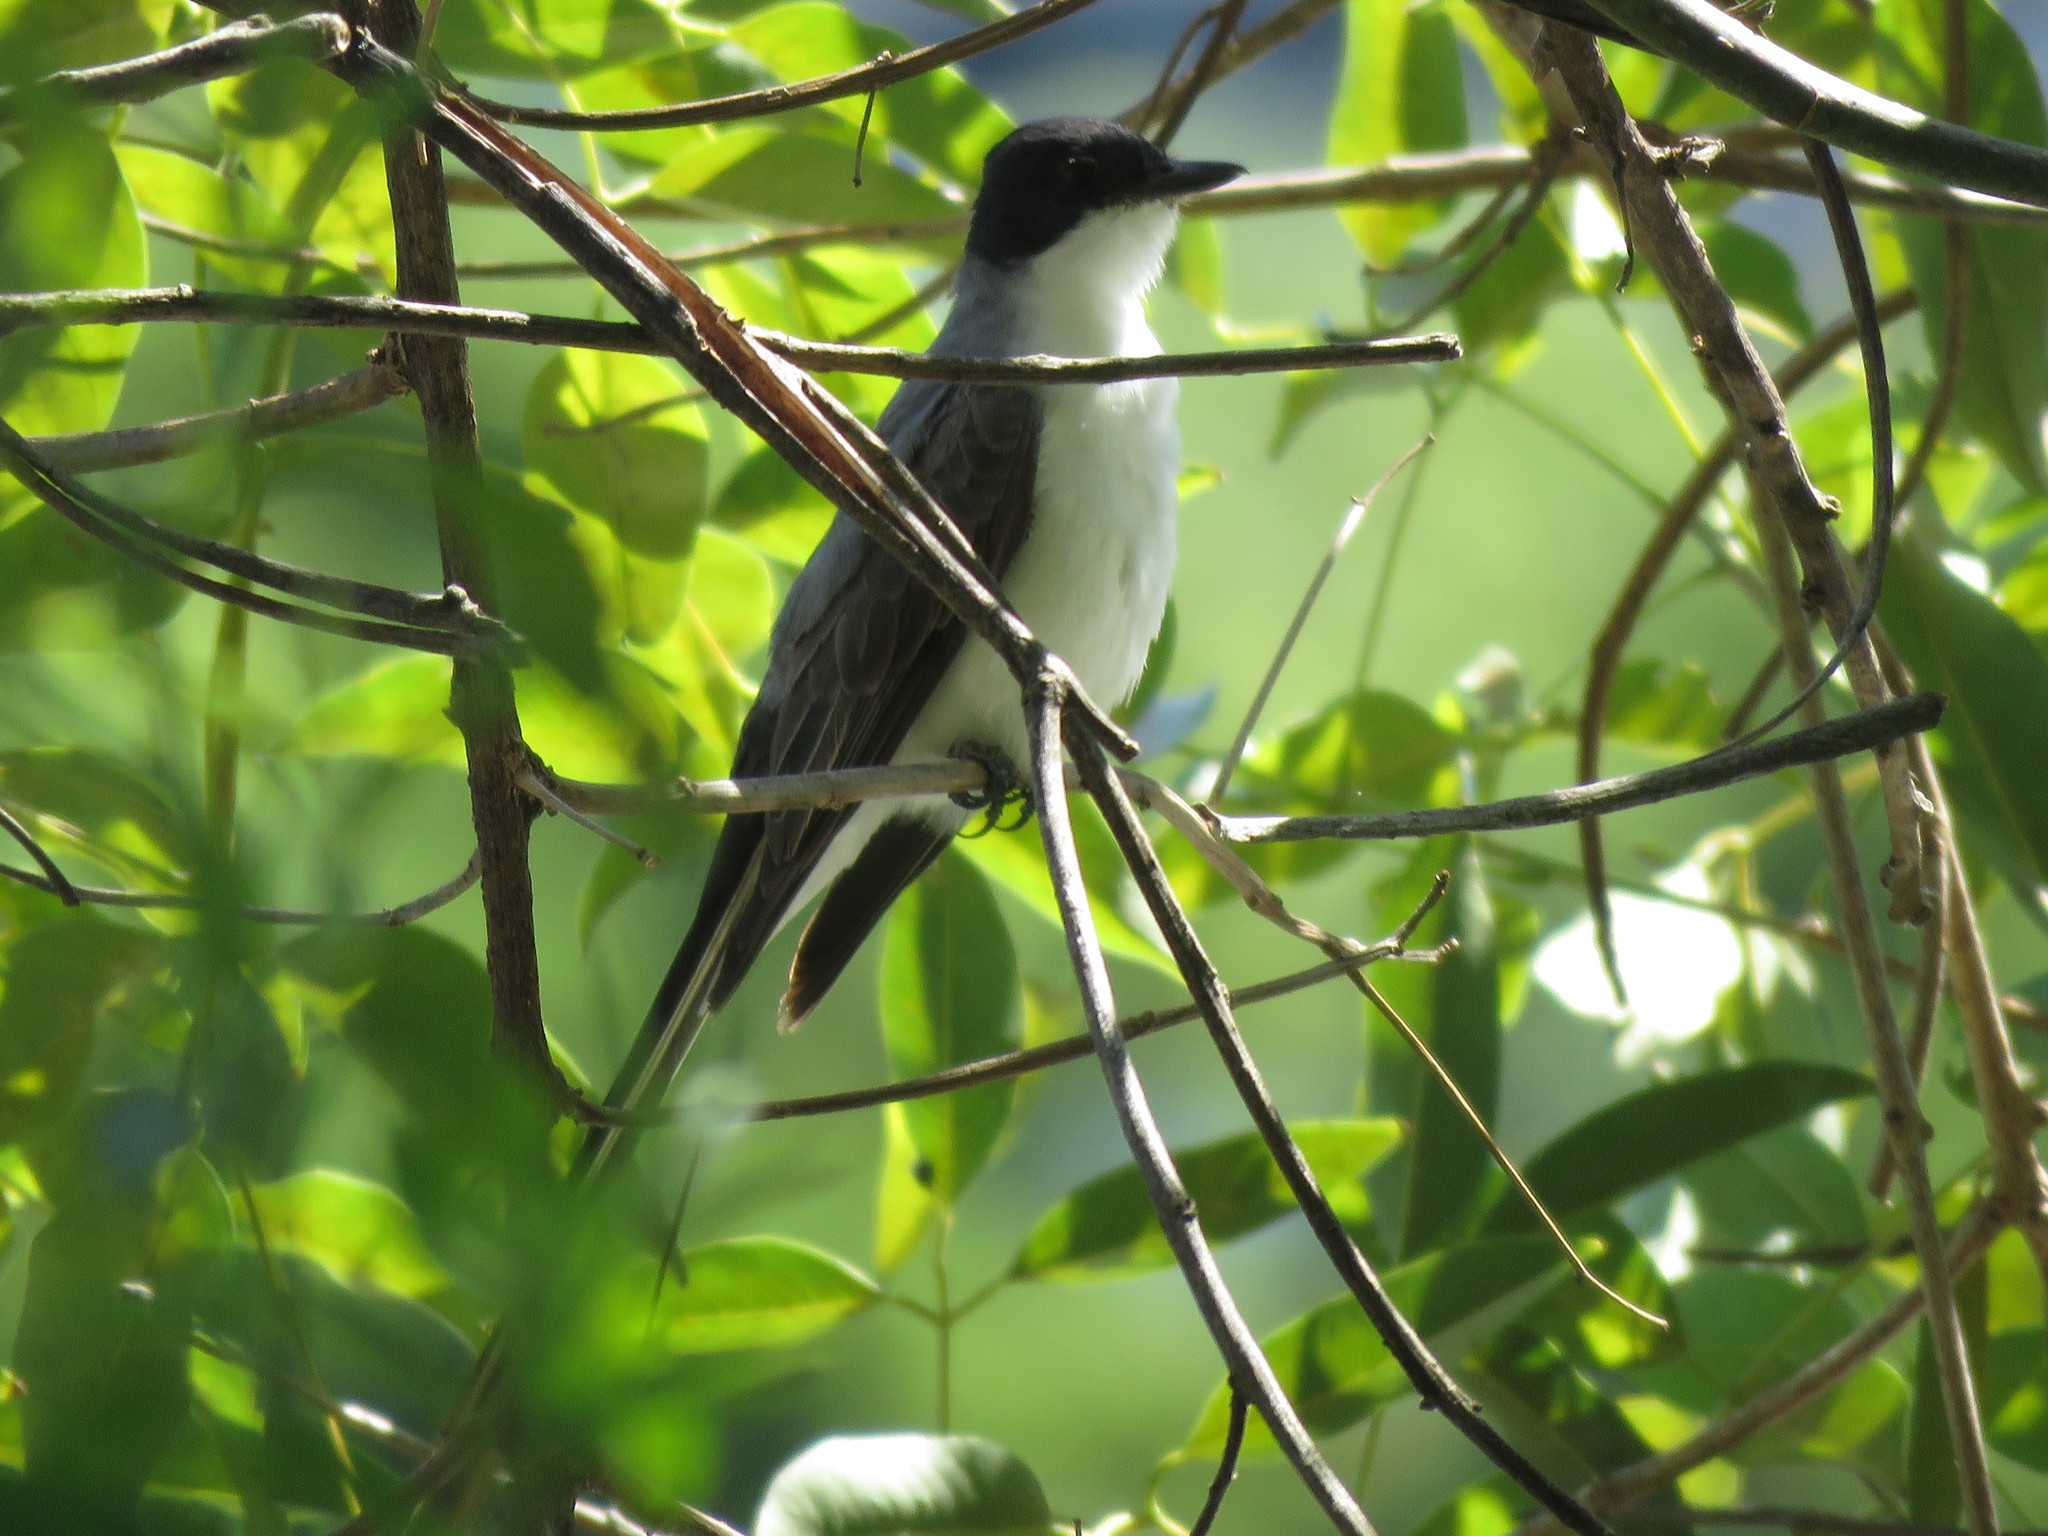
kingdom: Animalia
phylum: Chordata
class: Aves
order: Passeriformes
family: Tyrannidae
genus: Tyrannus
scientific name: Tyrannus savana
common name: Fork-tailed flycatcher
